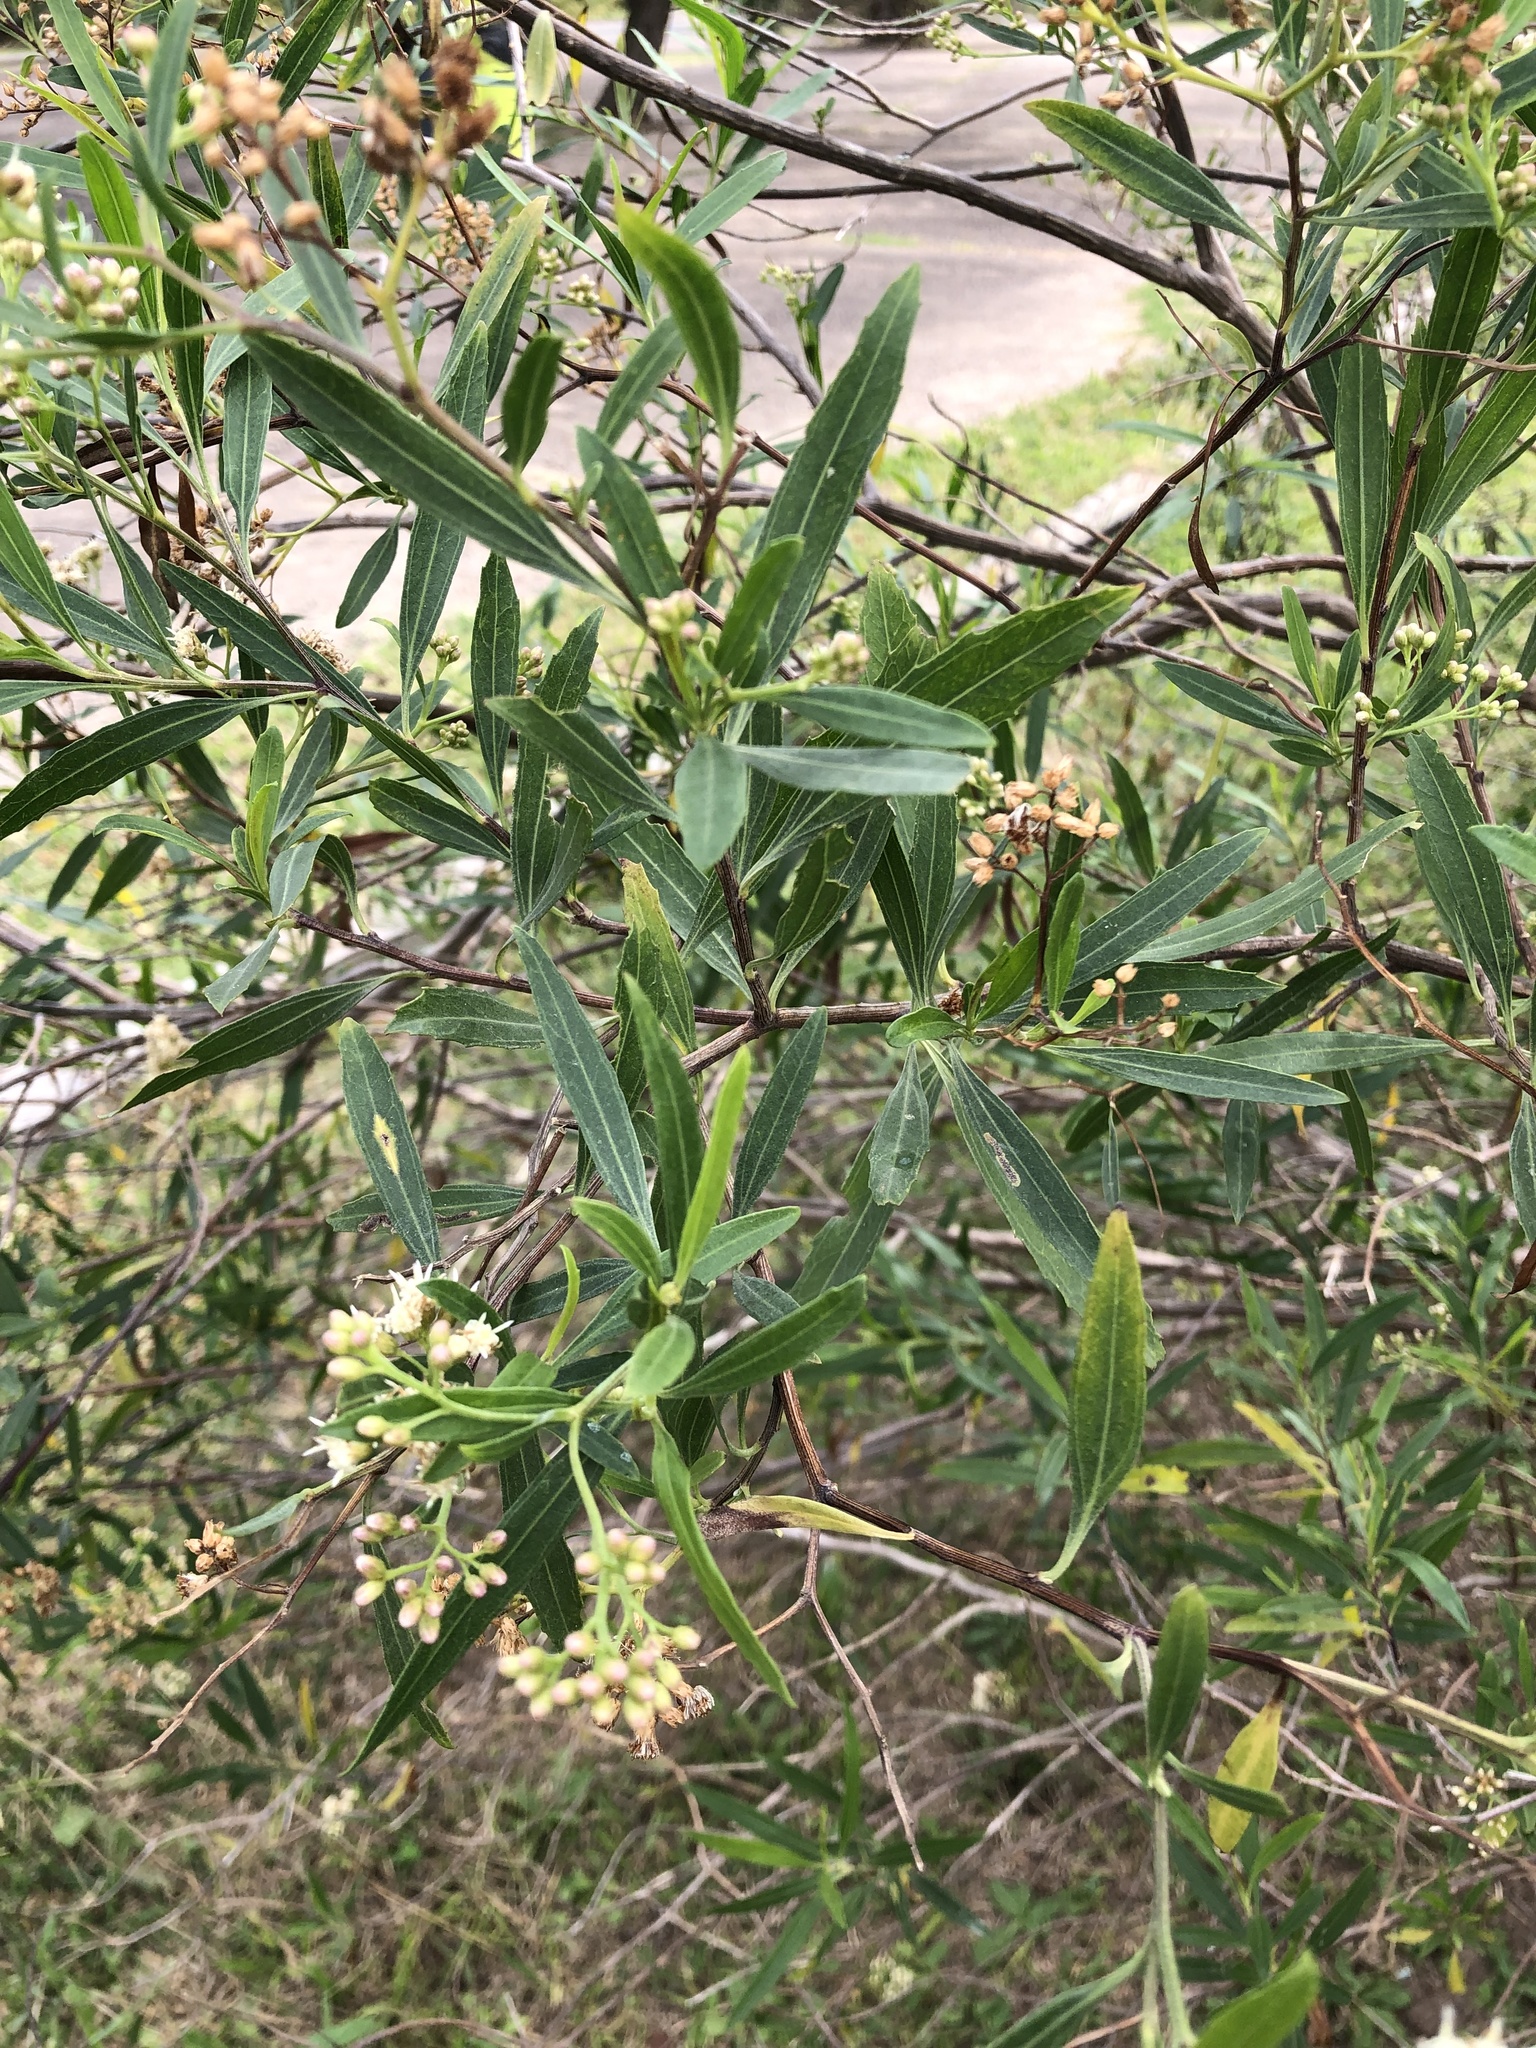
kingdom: Plantae
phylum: Tracheophyta
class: Magnoliopsida
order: Asterales
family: Asteraceae
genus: Baccharis
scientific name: Baccharis salicifolia
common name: Sticky baccharis
